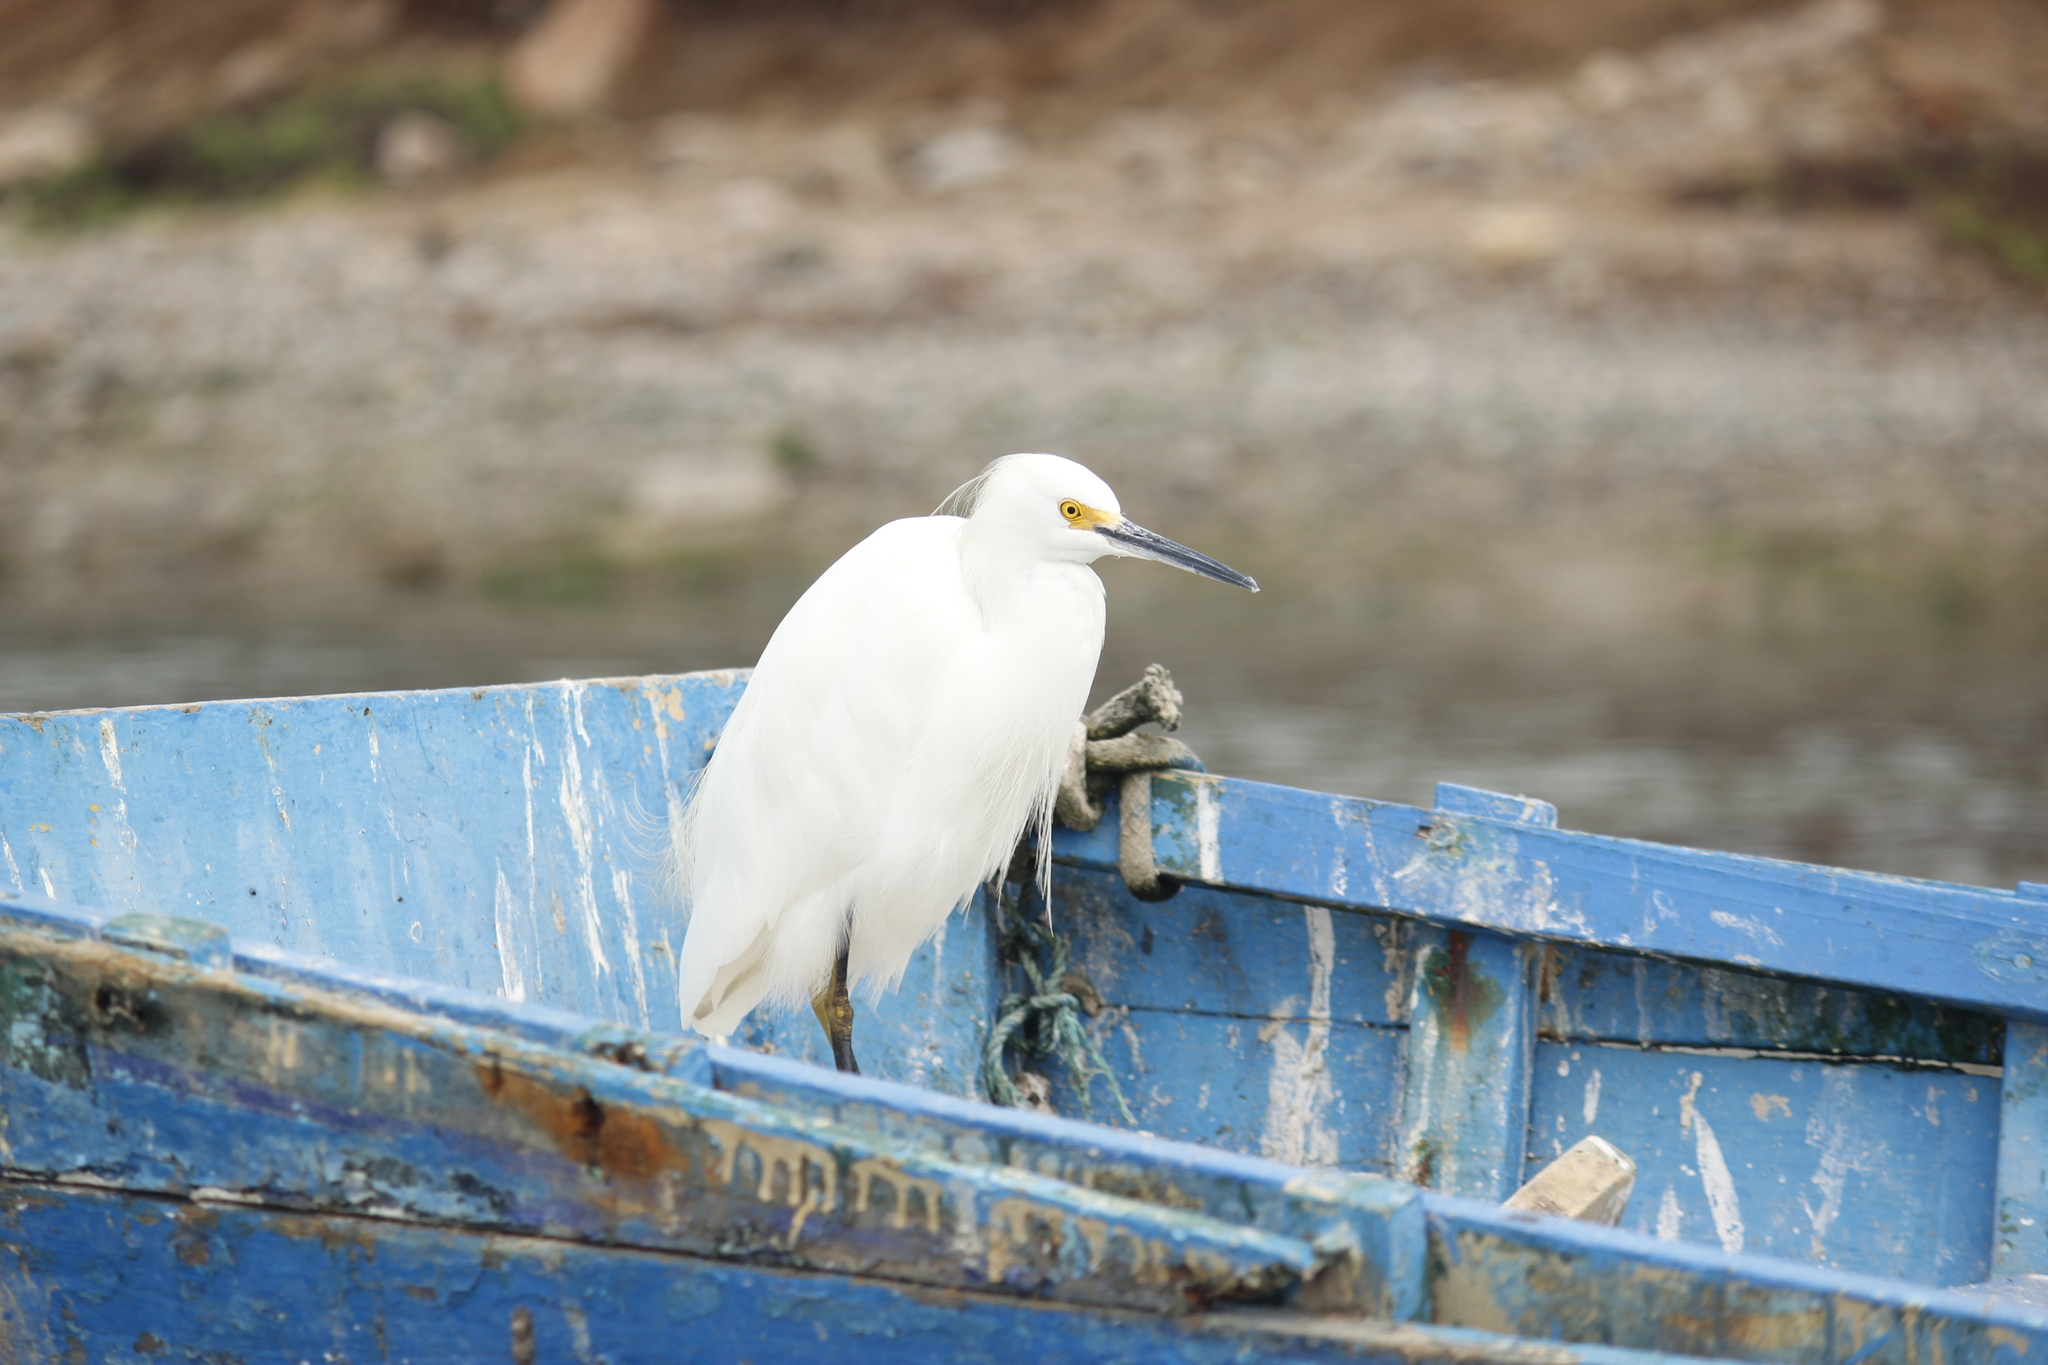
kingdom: Animalia
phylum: Chordata
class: Aves
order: Pelecaniformes
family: Ardeidae
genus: Egretta
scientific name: Egretta thula
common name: Snowy egret
